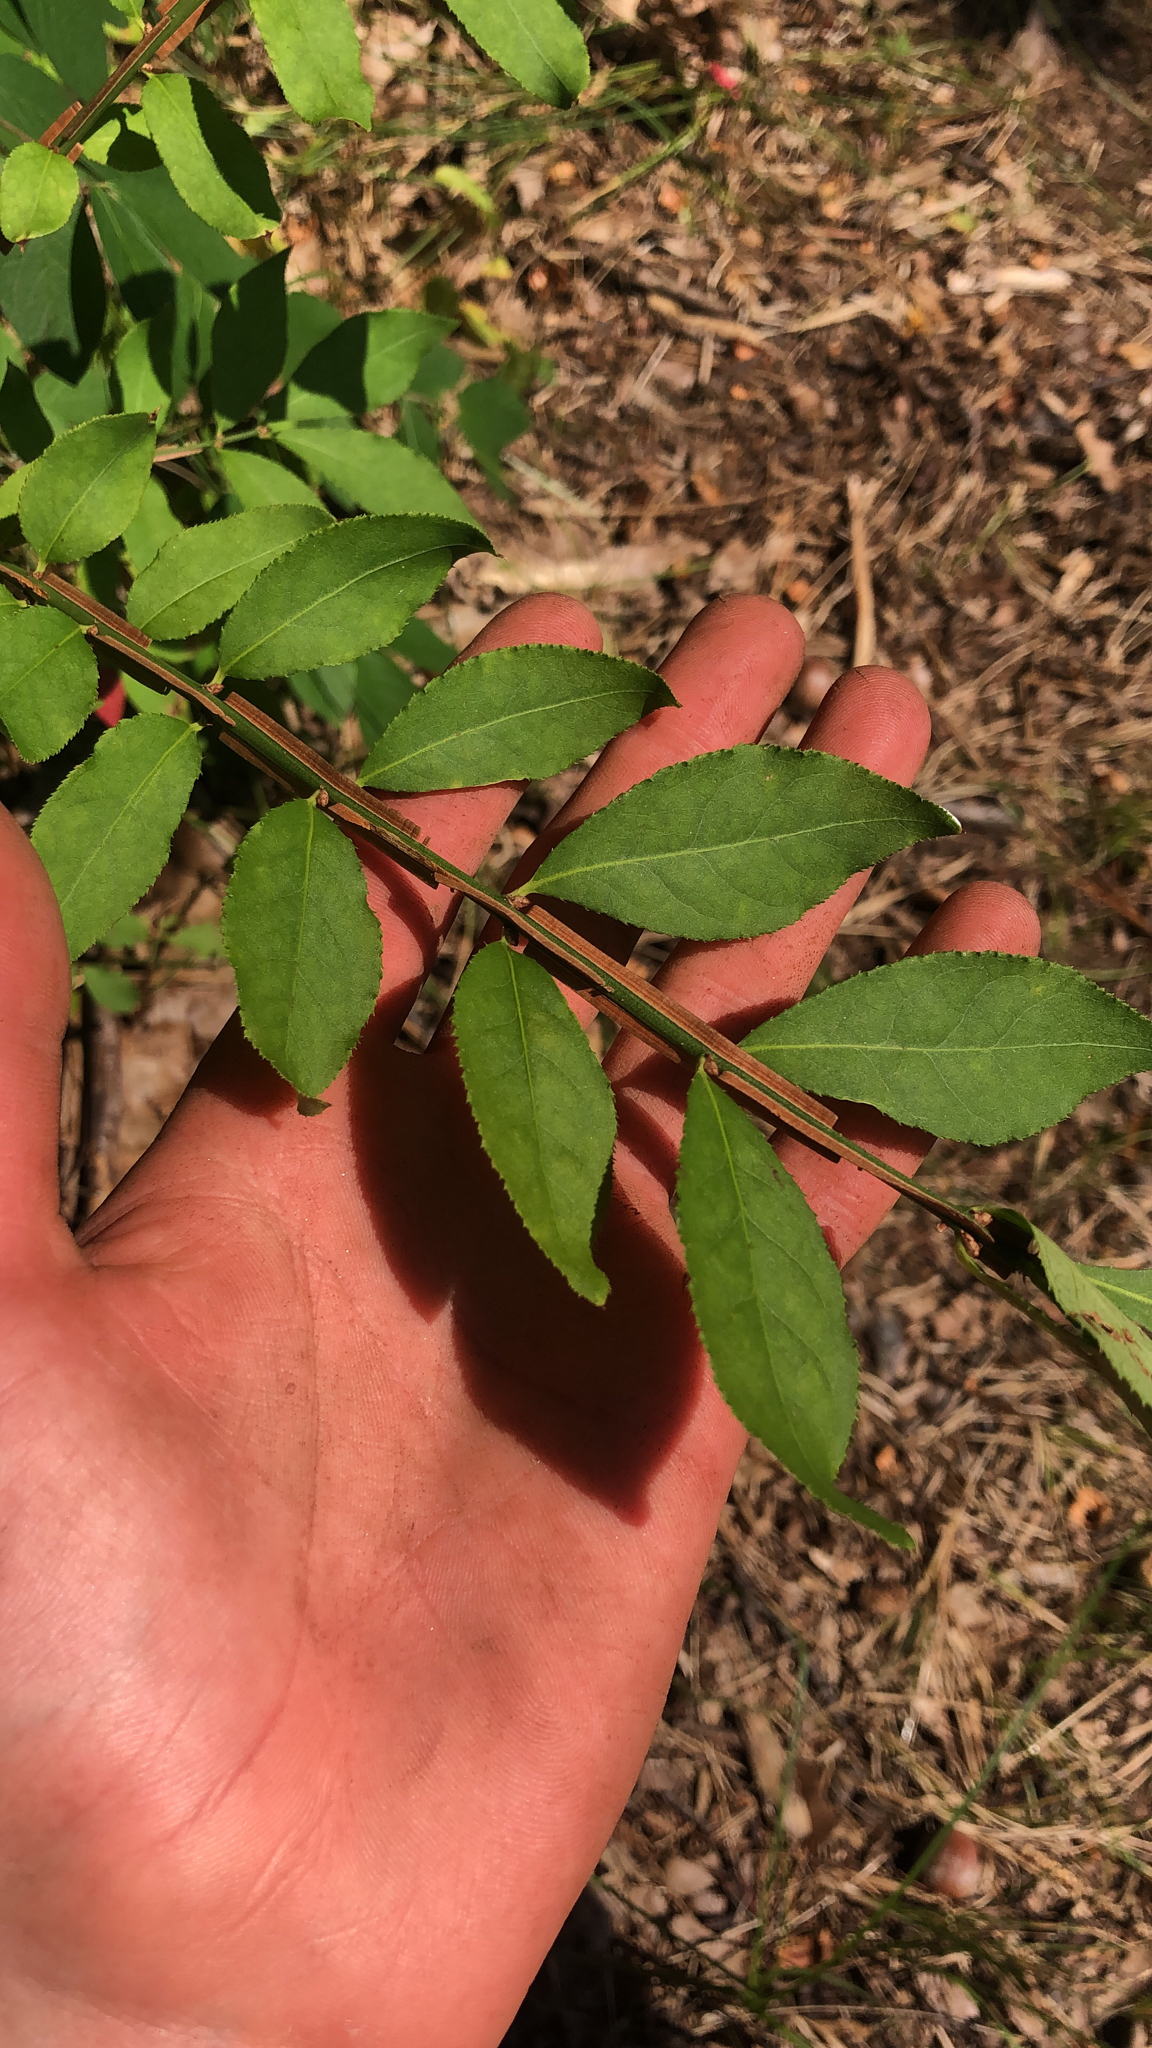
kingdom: Plantae
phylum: Tracheophyta
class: Magnoliopsida
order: Celastrales
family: Celastraceae
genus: Euonymus
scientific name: Euonymus alatus
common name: Winged euonymus
